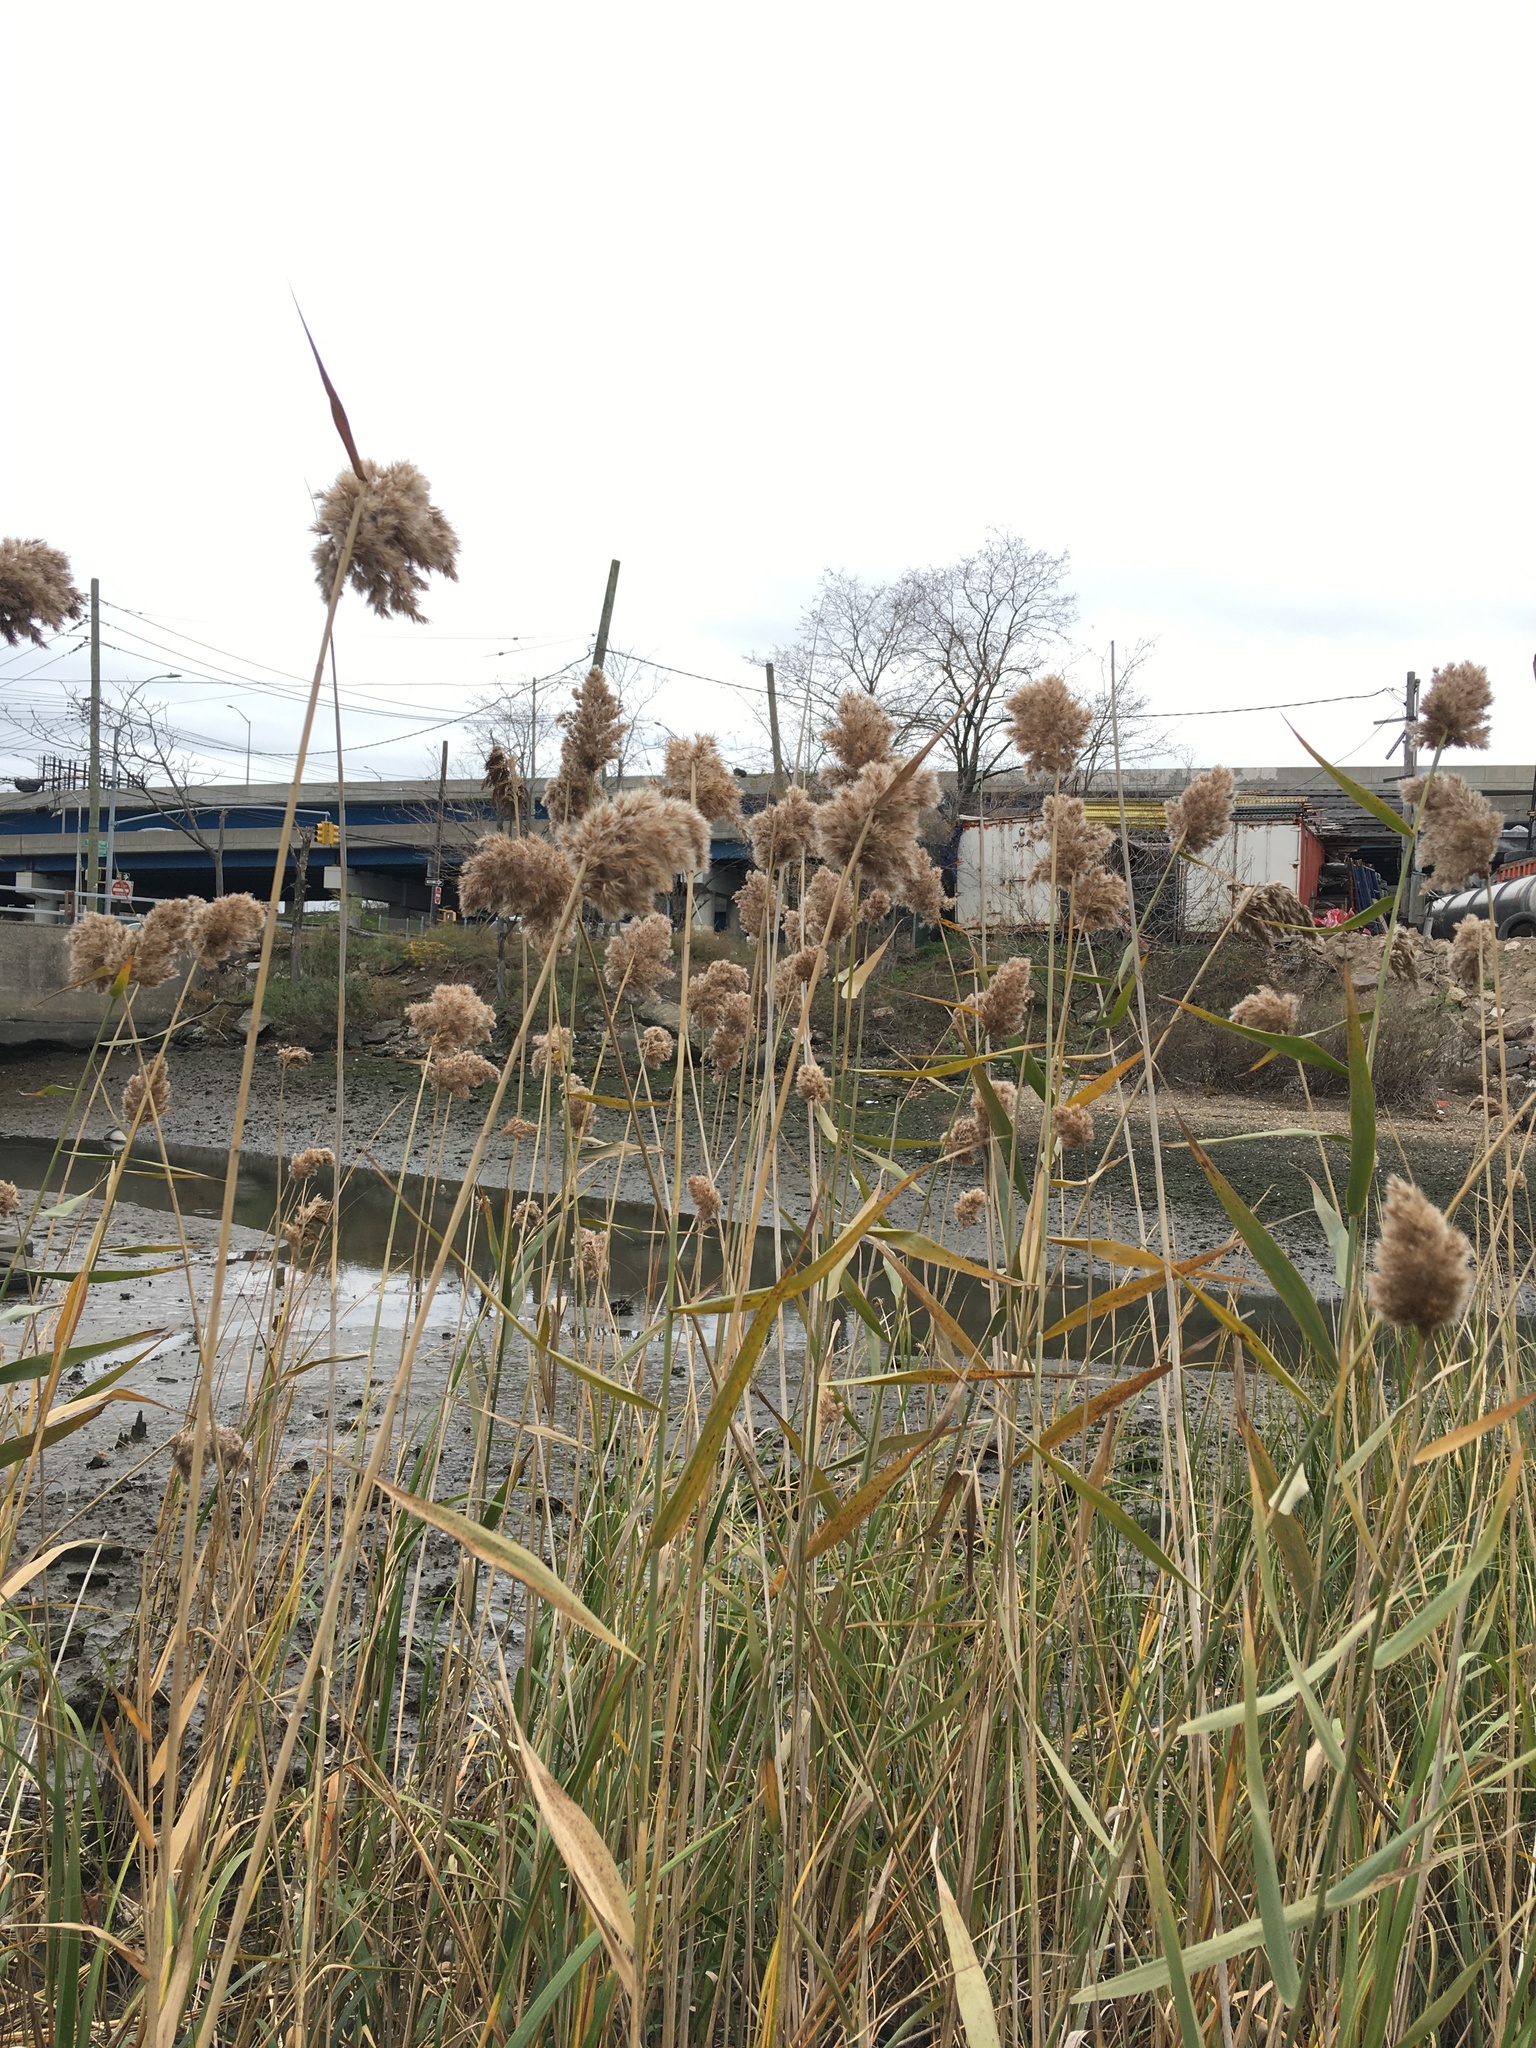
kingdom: Plantae
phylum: Tracheophyta
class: Liliopsida
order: Poales
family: Poaceae
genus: Phragmites
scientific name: Phragmites australis
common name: Common reed
